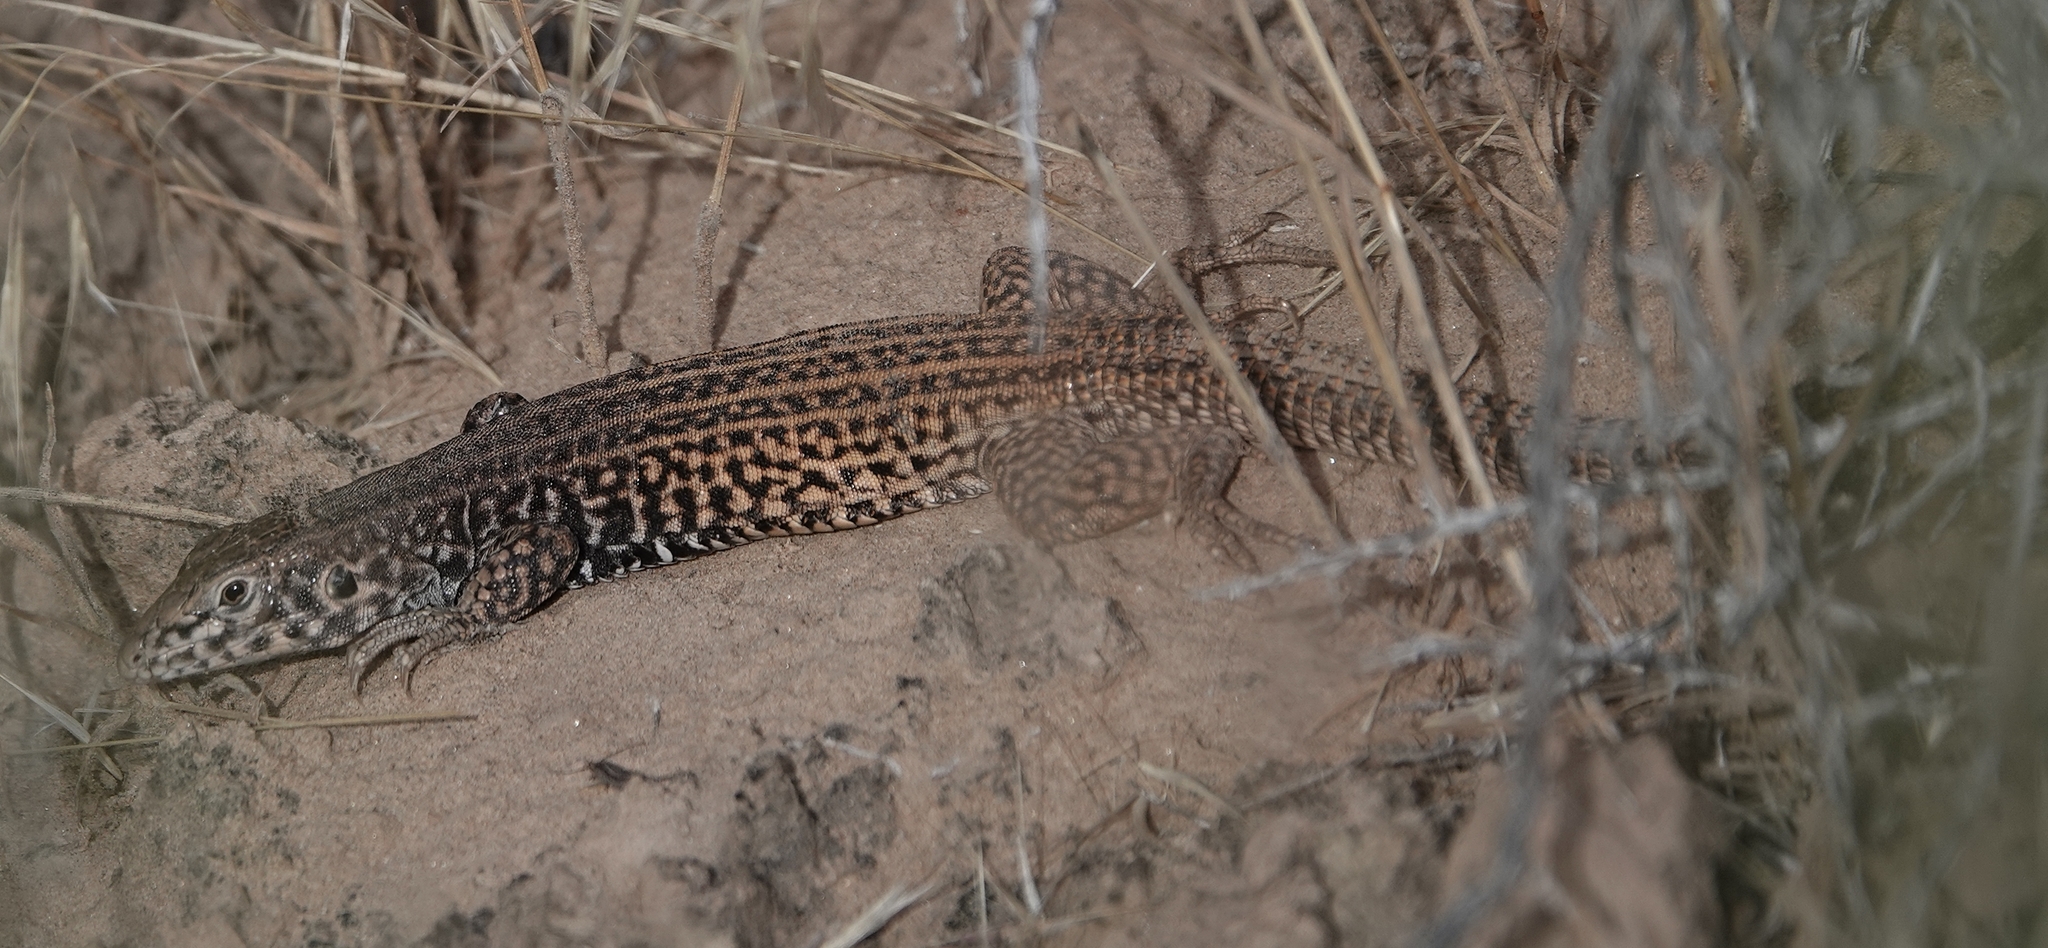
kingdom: Animalia
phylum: Chordata
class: Squamata
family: Teiidae
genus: Aspidoscelis
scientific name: Aspidoscelis tigris
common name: Tiger whiptail
